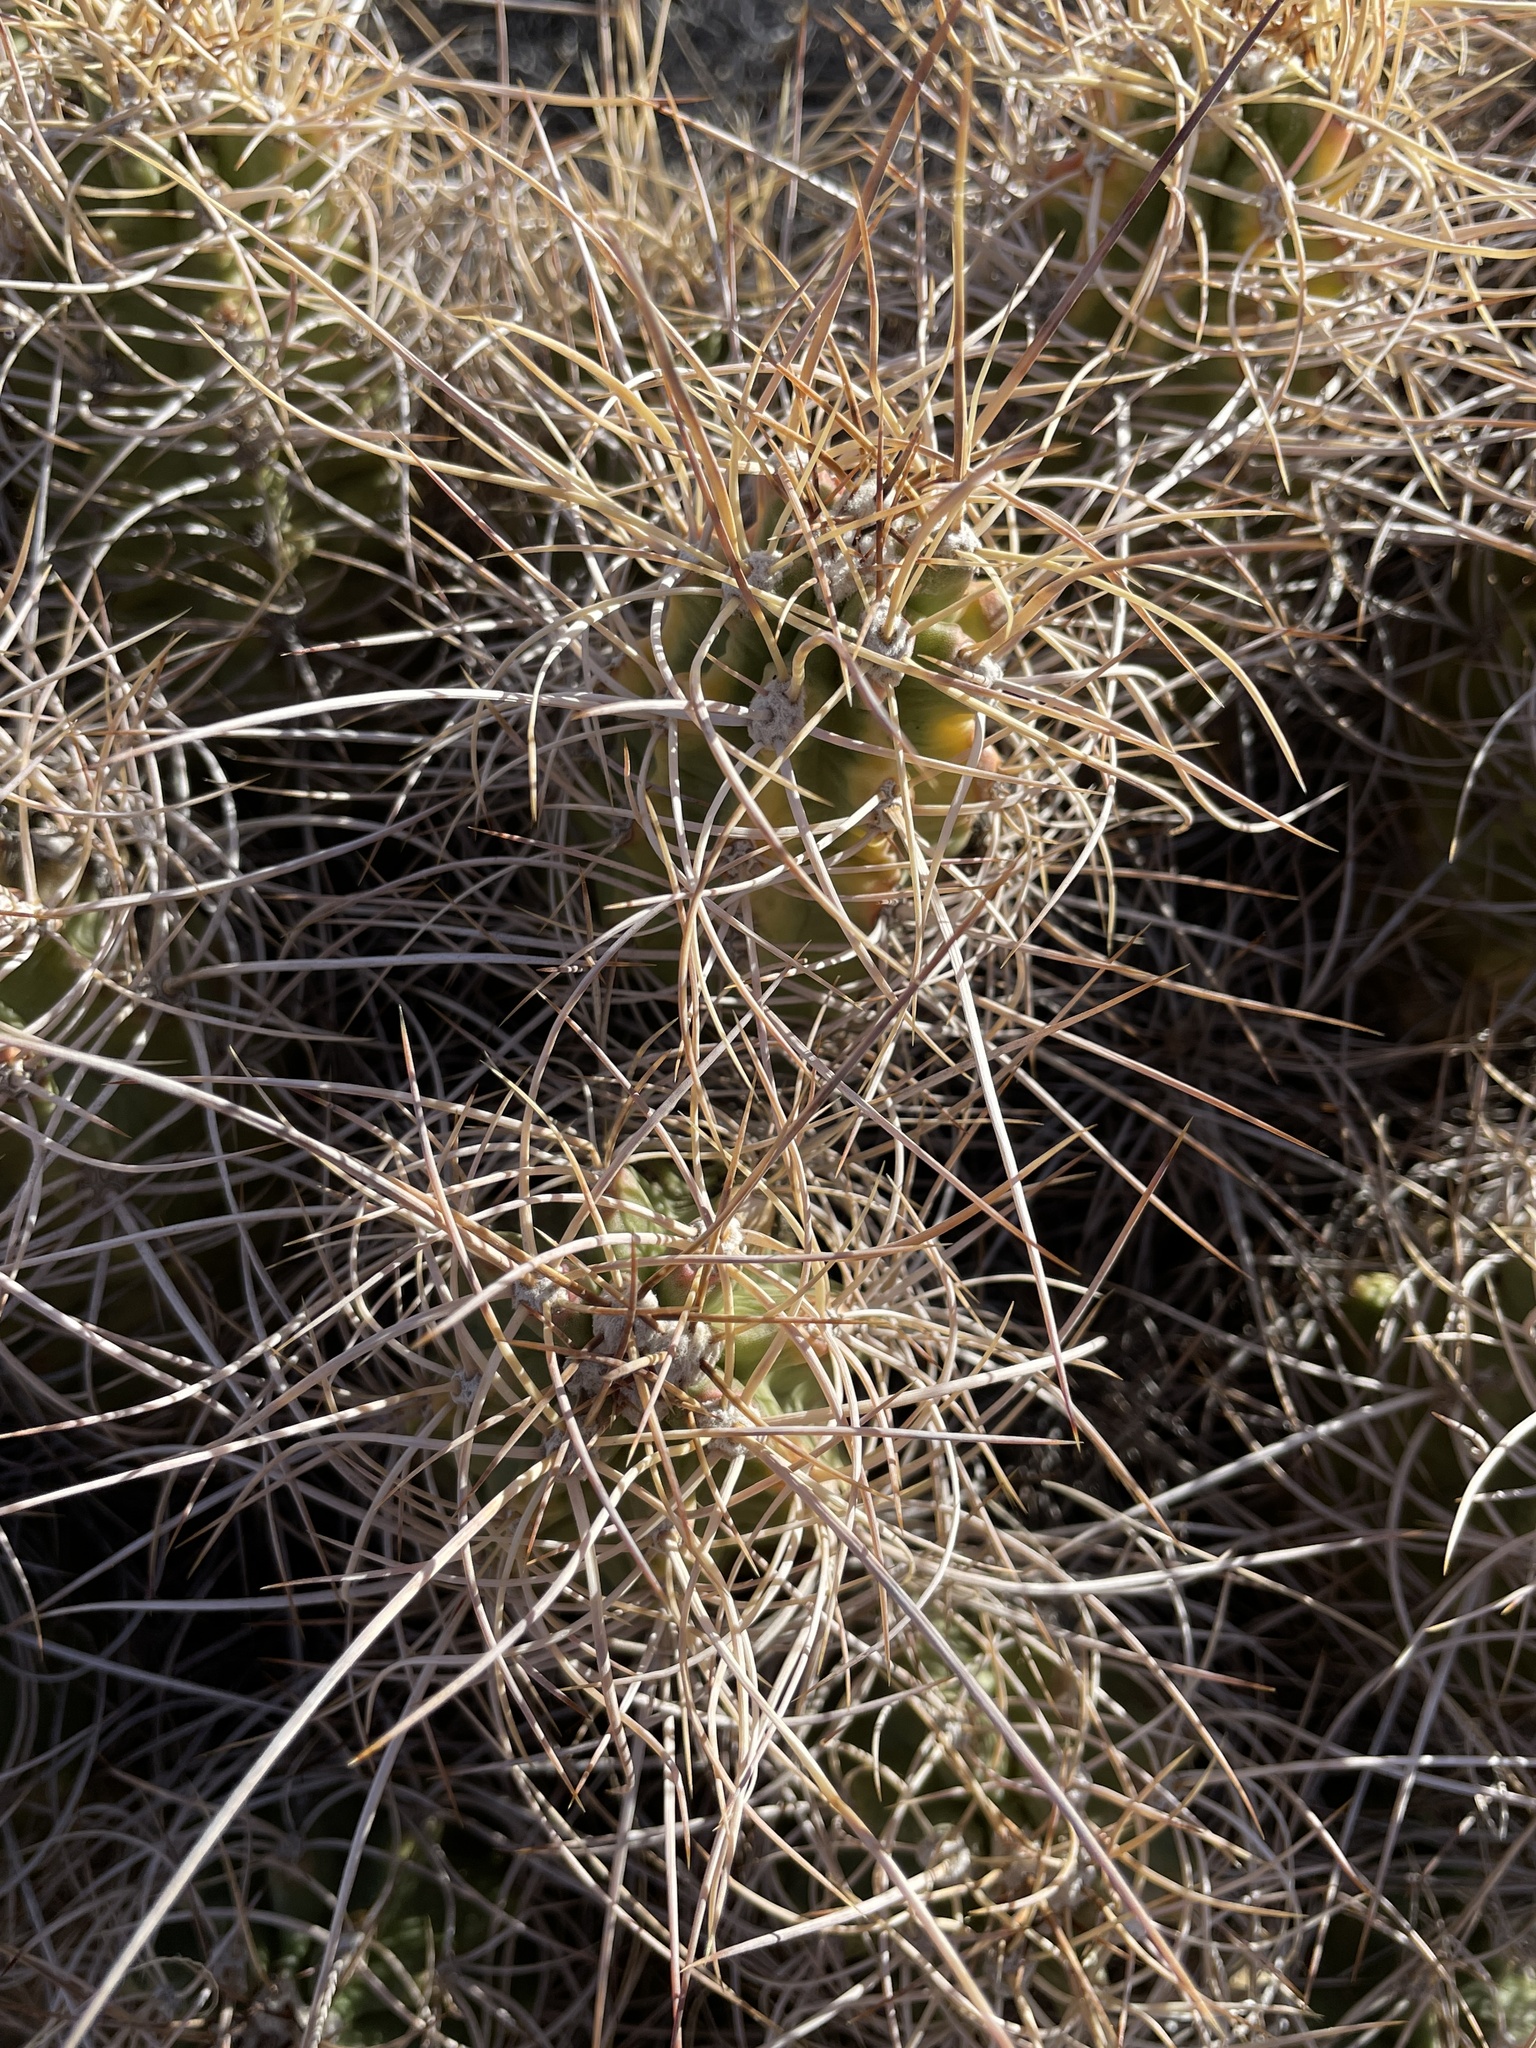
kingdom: Plantae
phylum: Tracheophyta
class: Magnoliopsida
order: Caryophyllales
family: Cactaceae
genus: Echinocereus
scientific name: Echinocereus triglochidiatus
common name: Claretcup hedgehog
